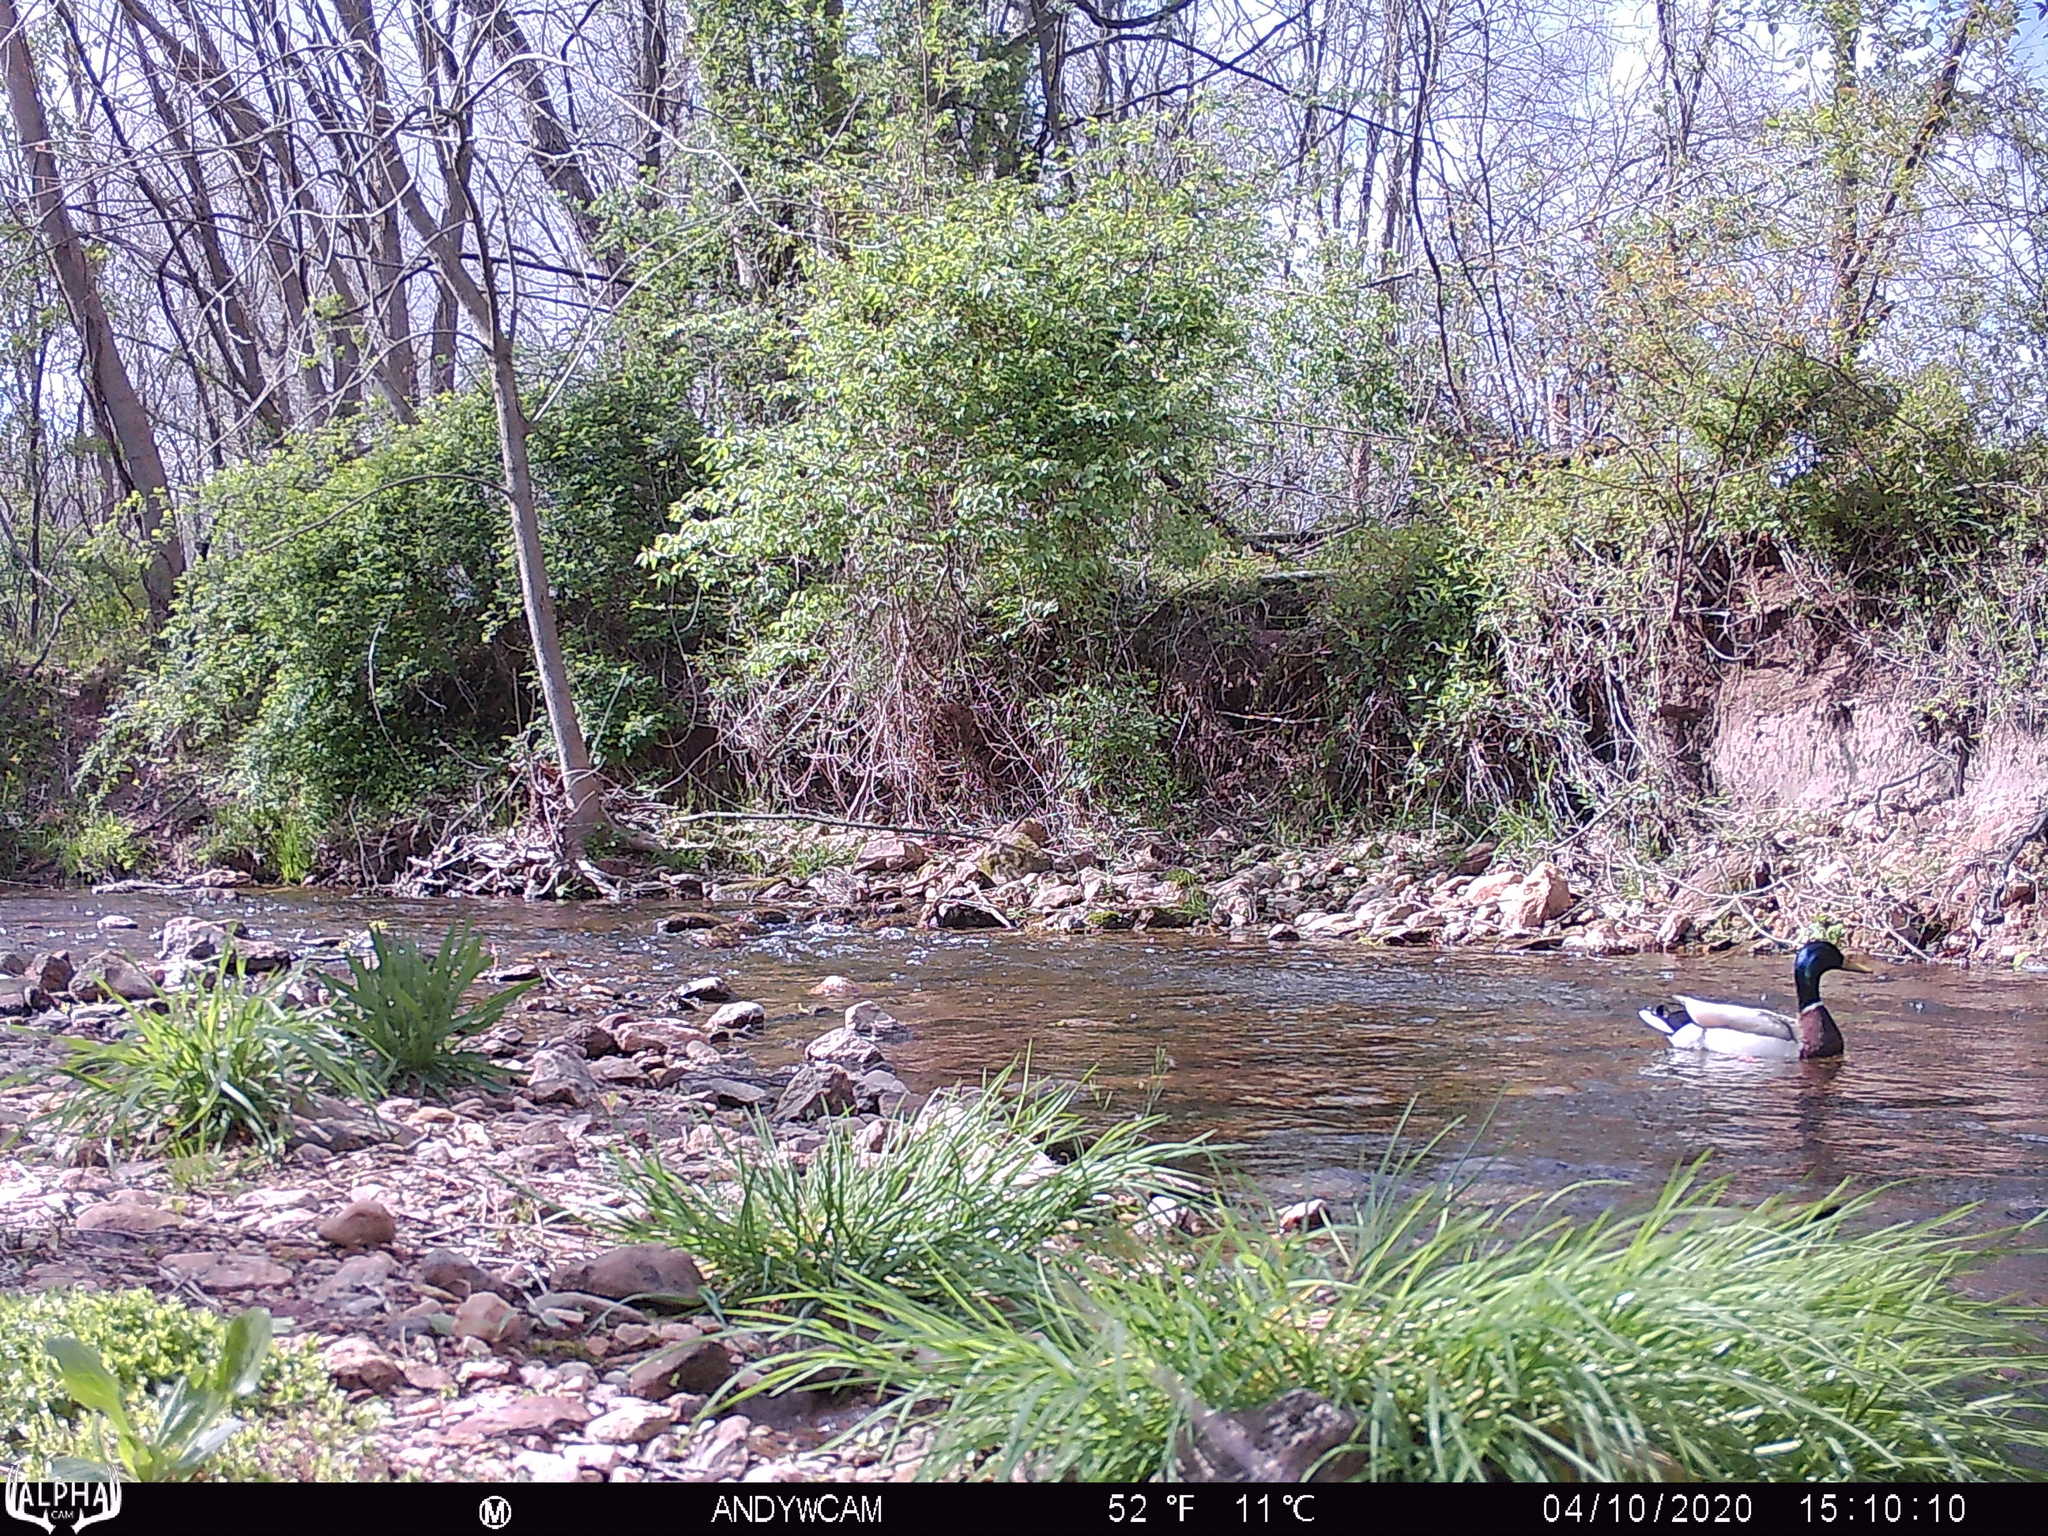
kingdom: Animalia
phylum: Chordata
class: Aves
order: Anseriformes
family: Anatidae
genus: Anas
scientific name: Anas platyrhynchos
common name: Mallard
